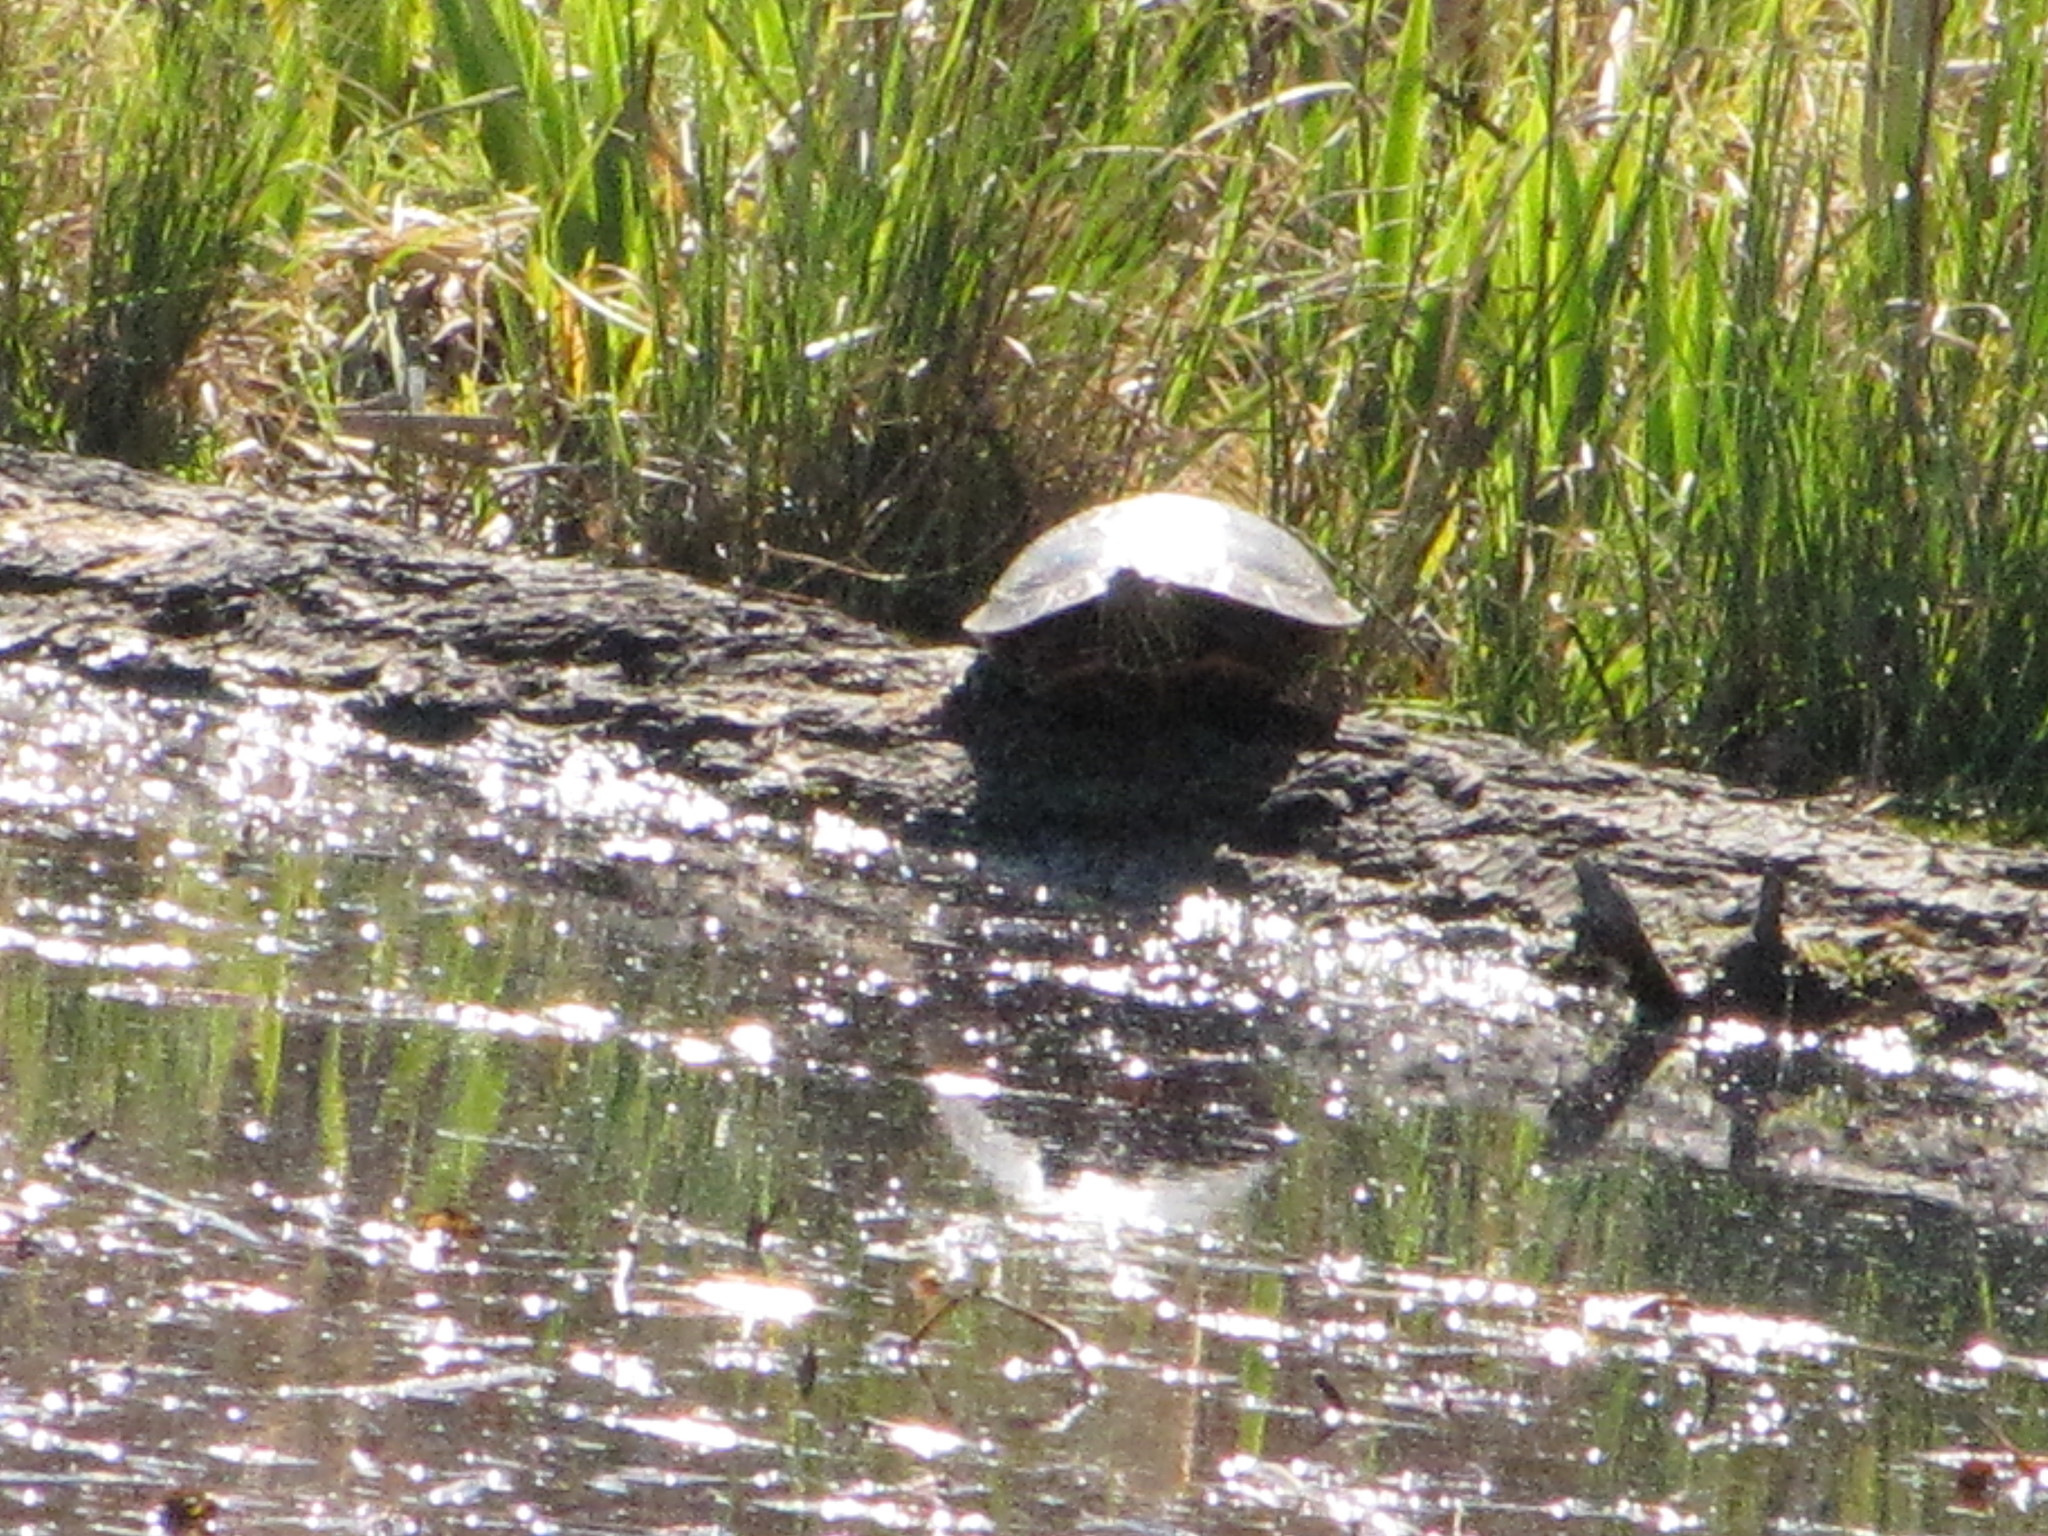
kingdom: Animalia
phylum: Chordata
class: Testudines
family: Emydidae
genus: Chrysemys
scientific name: Chrysemys picta
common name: Painted turtle
